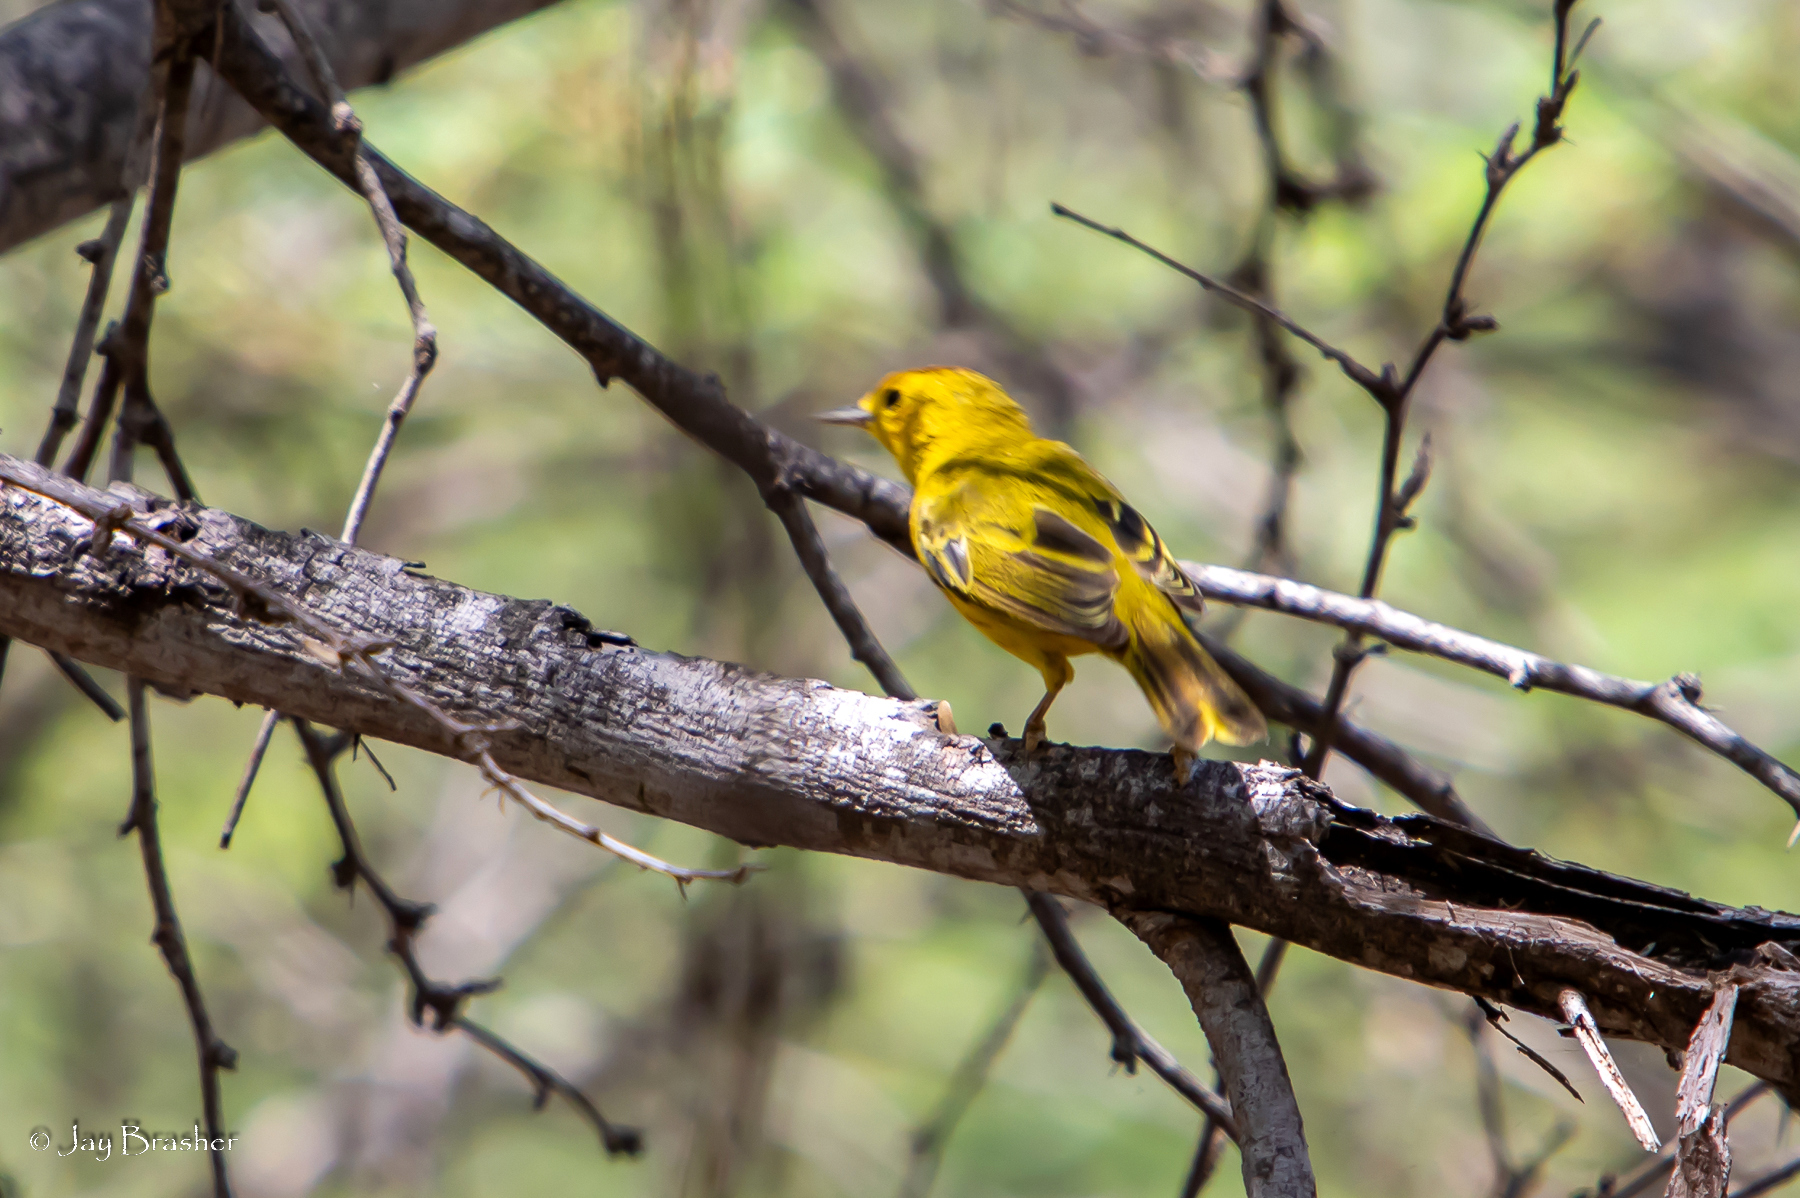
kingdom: Animalia
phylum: Chordata
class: Aves
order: Passeriformes
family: Parulidae
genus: Setophaga
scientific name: Setophaga petechia
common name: Yellow warbler
